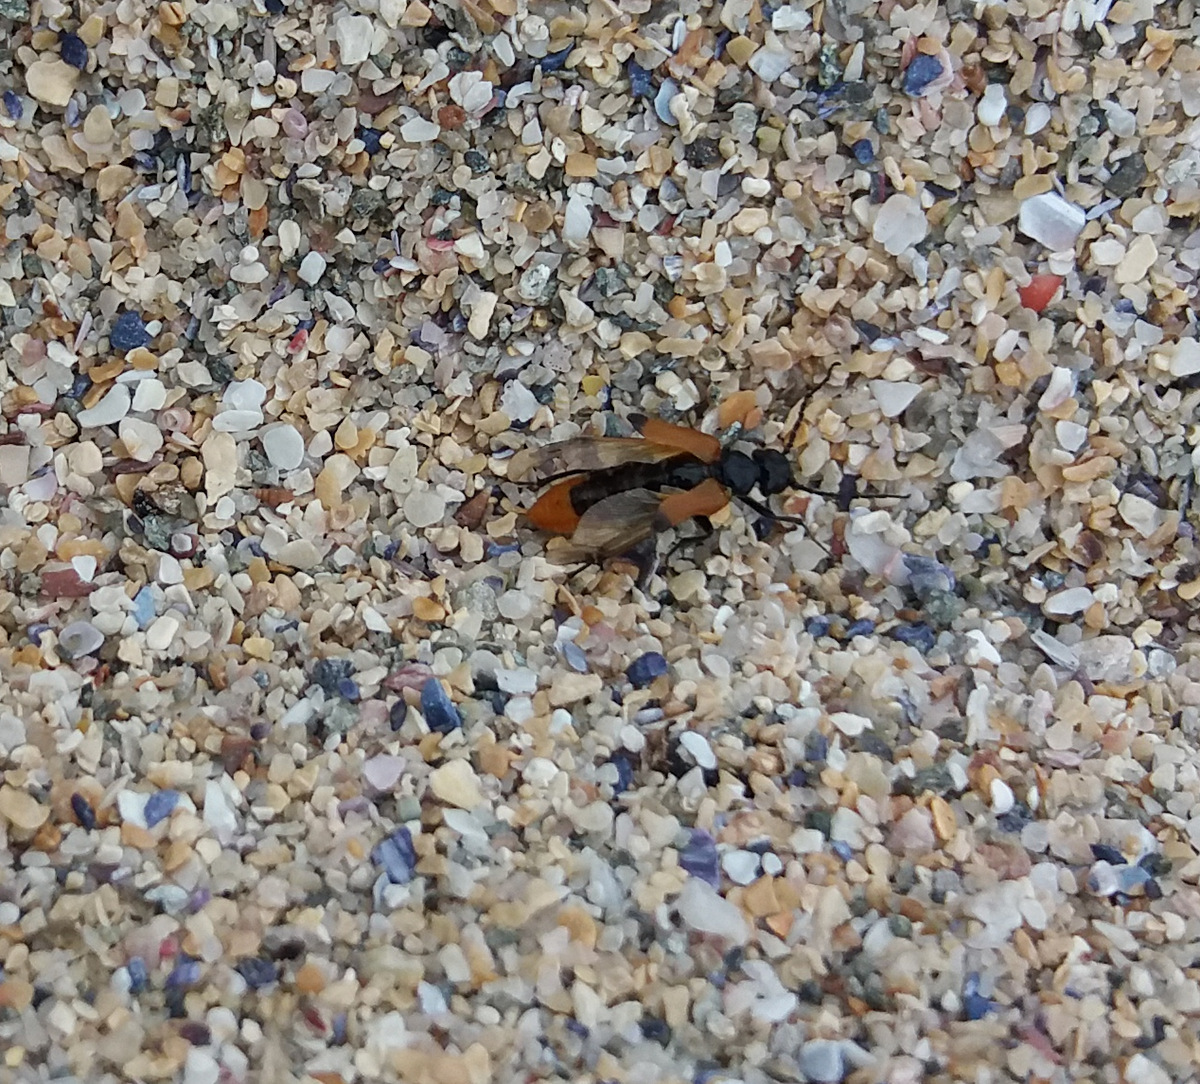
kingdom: Animalia
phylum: Arthropoda
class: Insecta
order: Coleoptera
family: Meloidae
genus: Stenoria
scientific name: Stenoria analis
